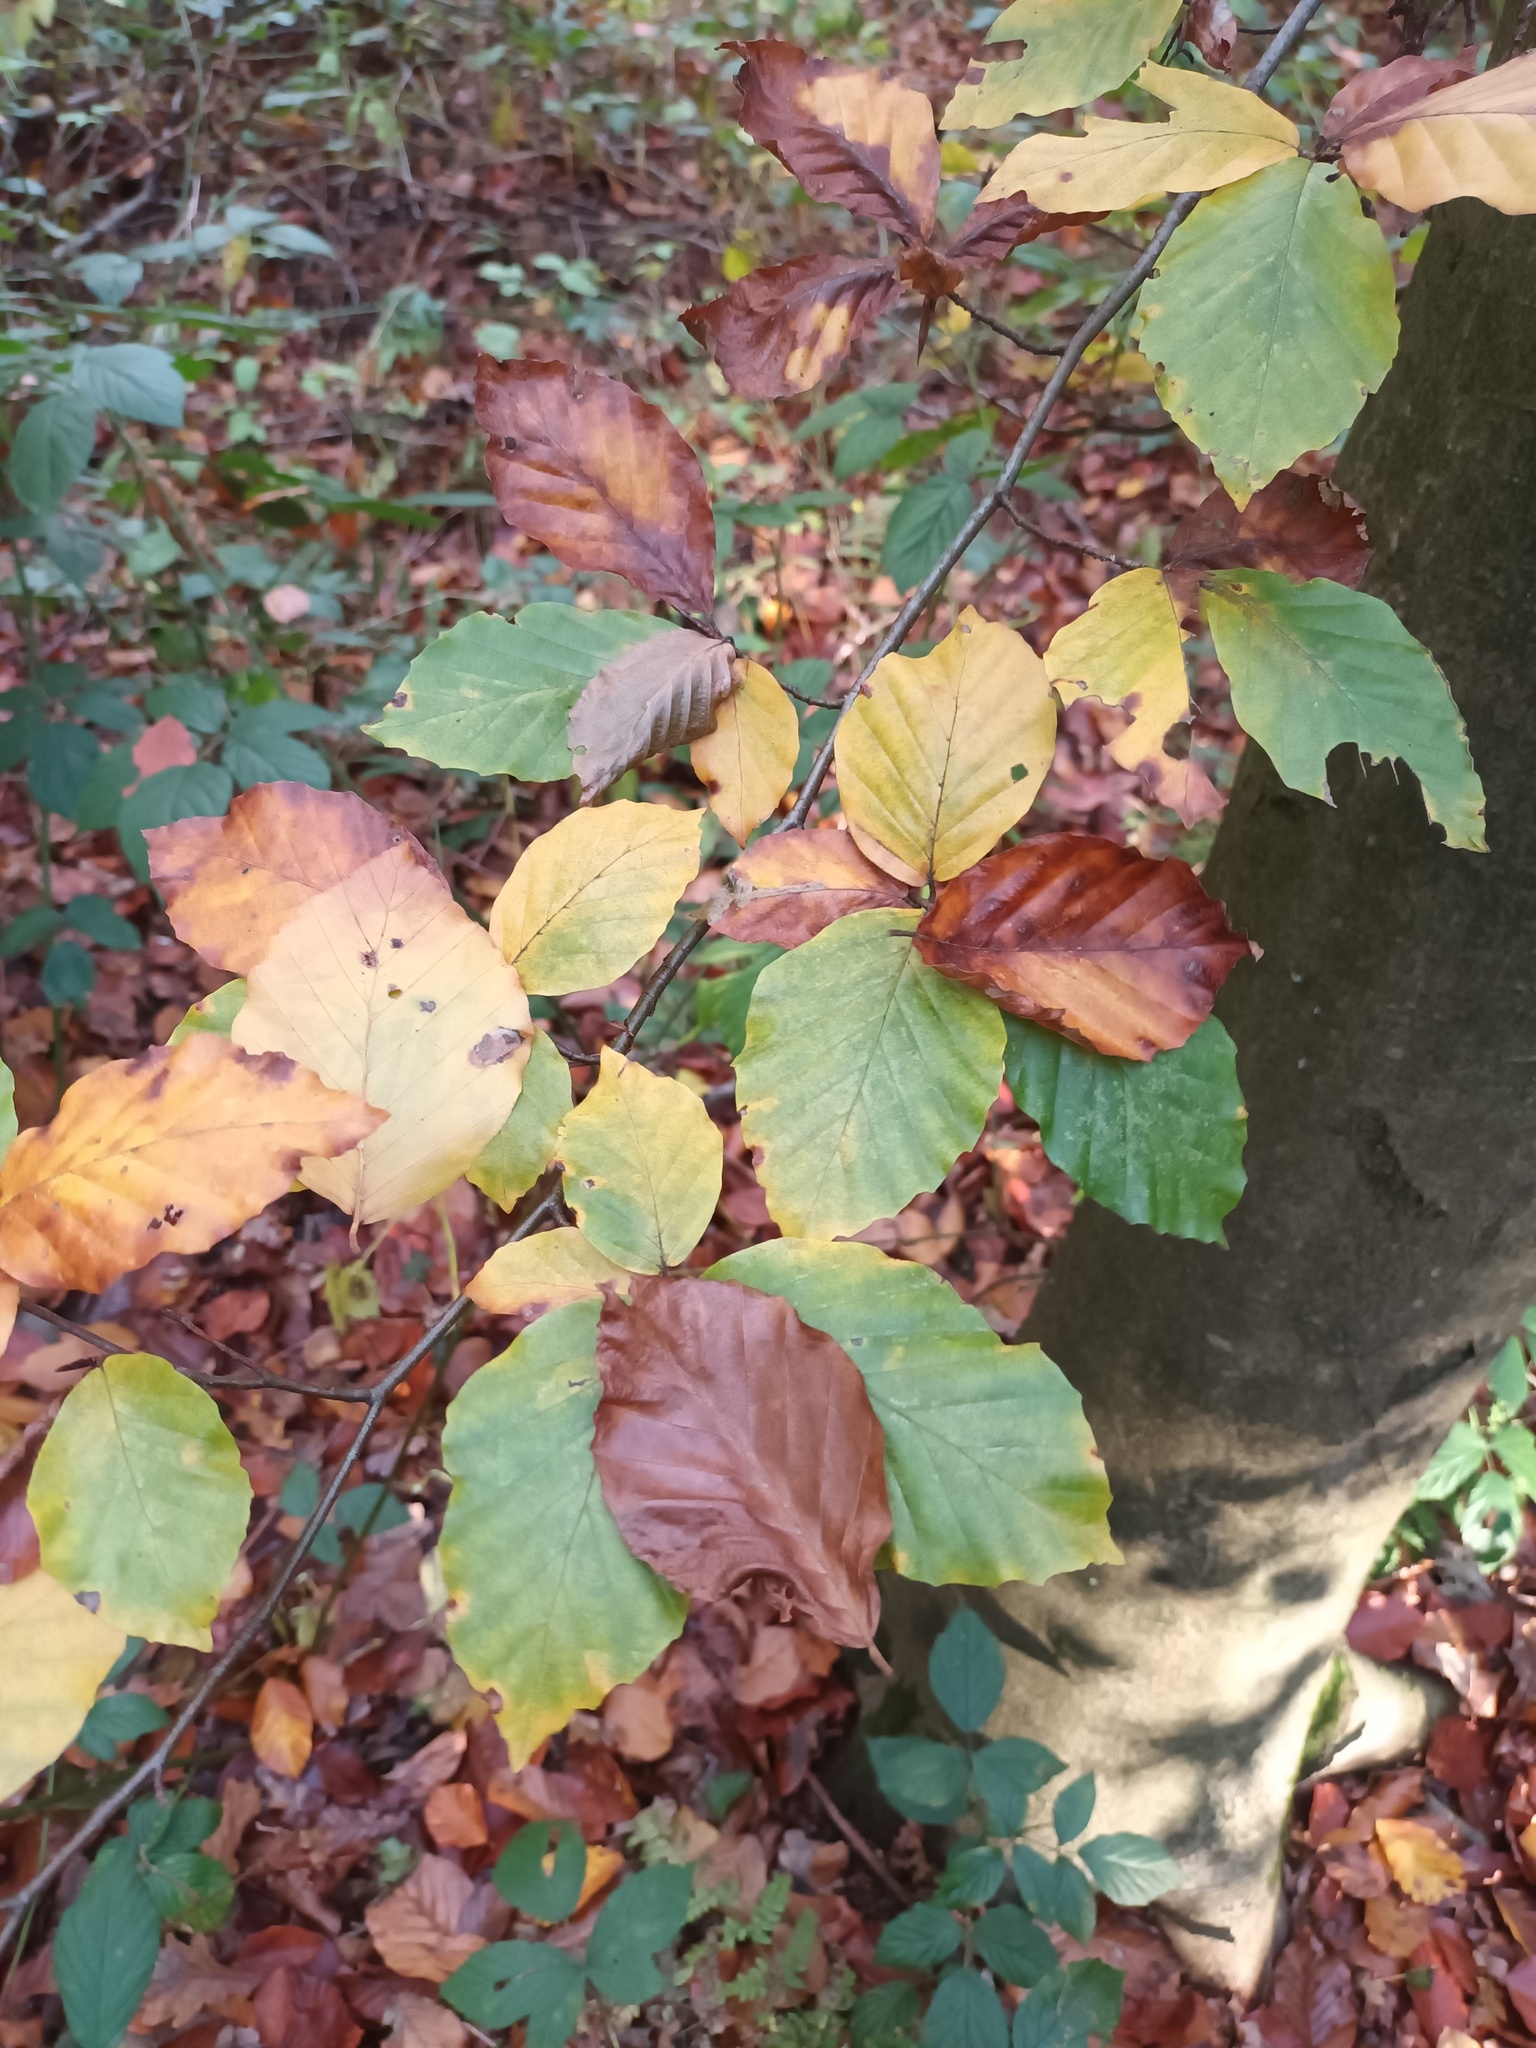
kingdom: Plantae
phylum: Tracheophyta
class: Magnoliopsida
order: Fagales
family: Fagaceae
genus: Fagus
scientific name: Fagus sylvatica
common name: Beech
